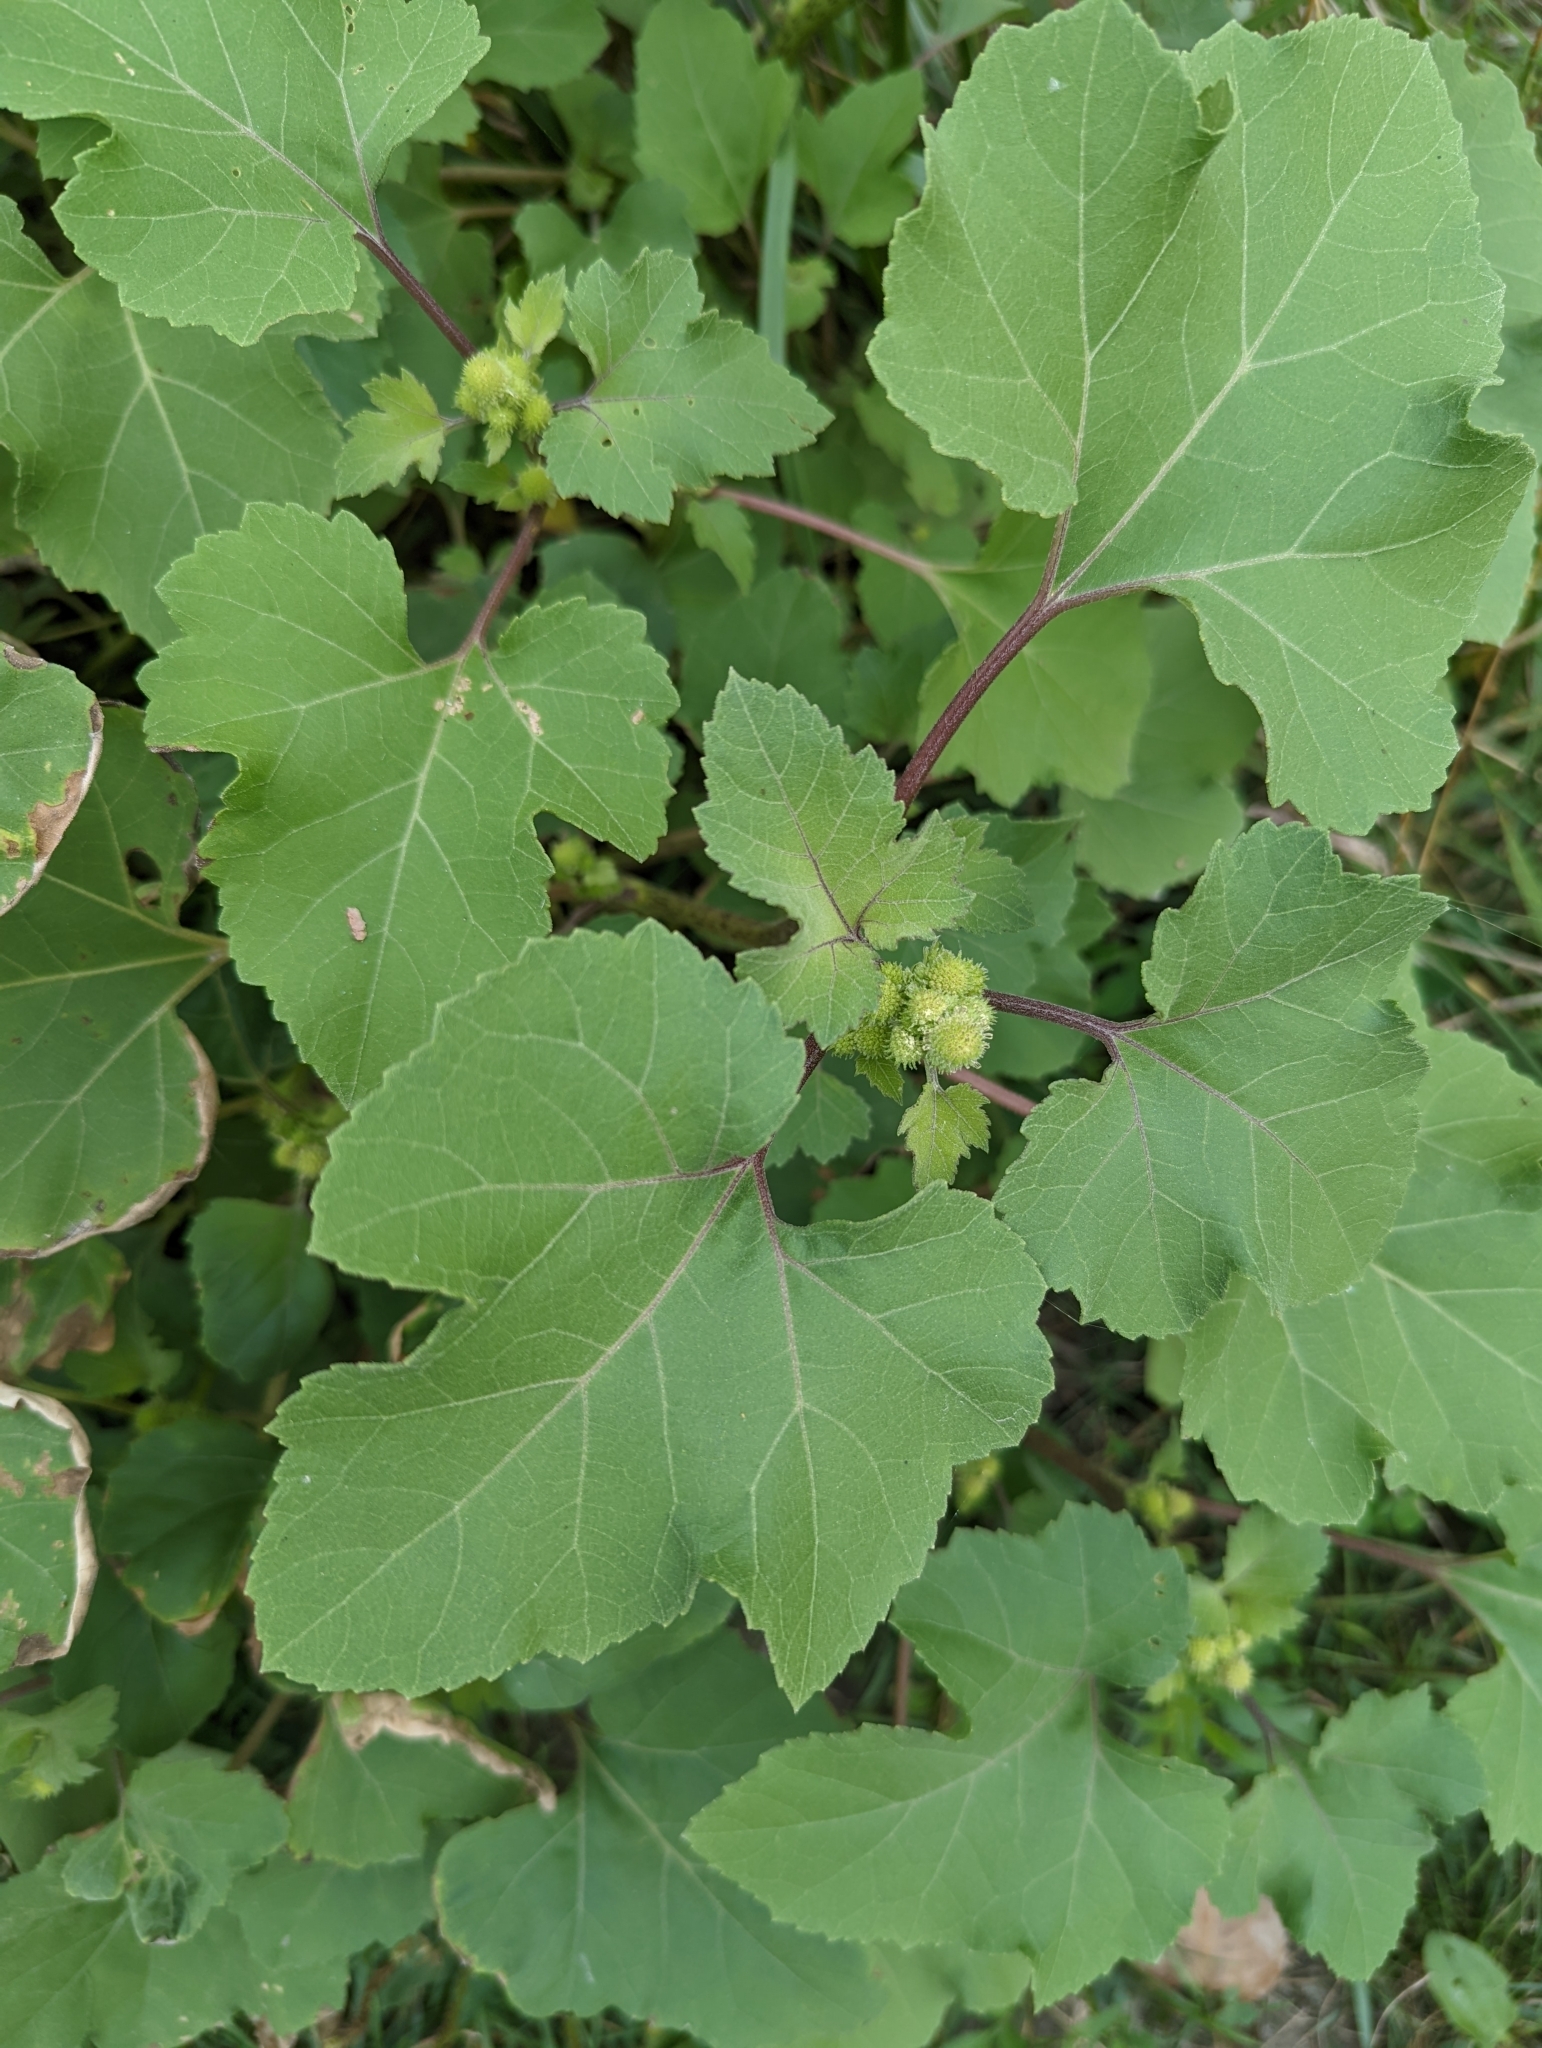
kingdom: Plantae
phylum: Tracheophyta
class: Magnoliopsida
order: Asterales
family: Asteraceae
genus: Xanthium
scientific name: Xanthium strumarium
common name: Rough cocklebur
